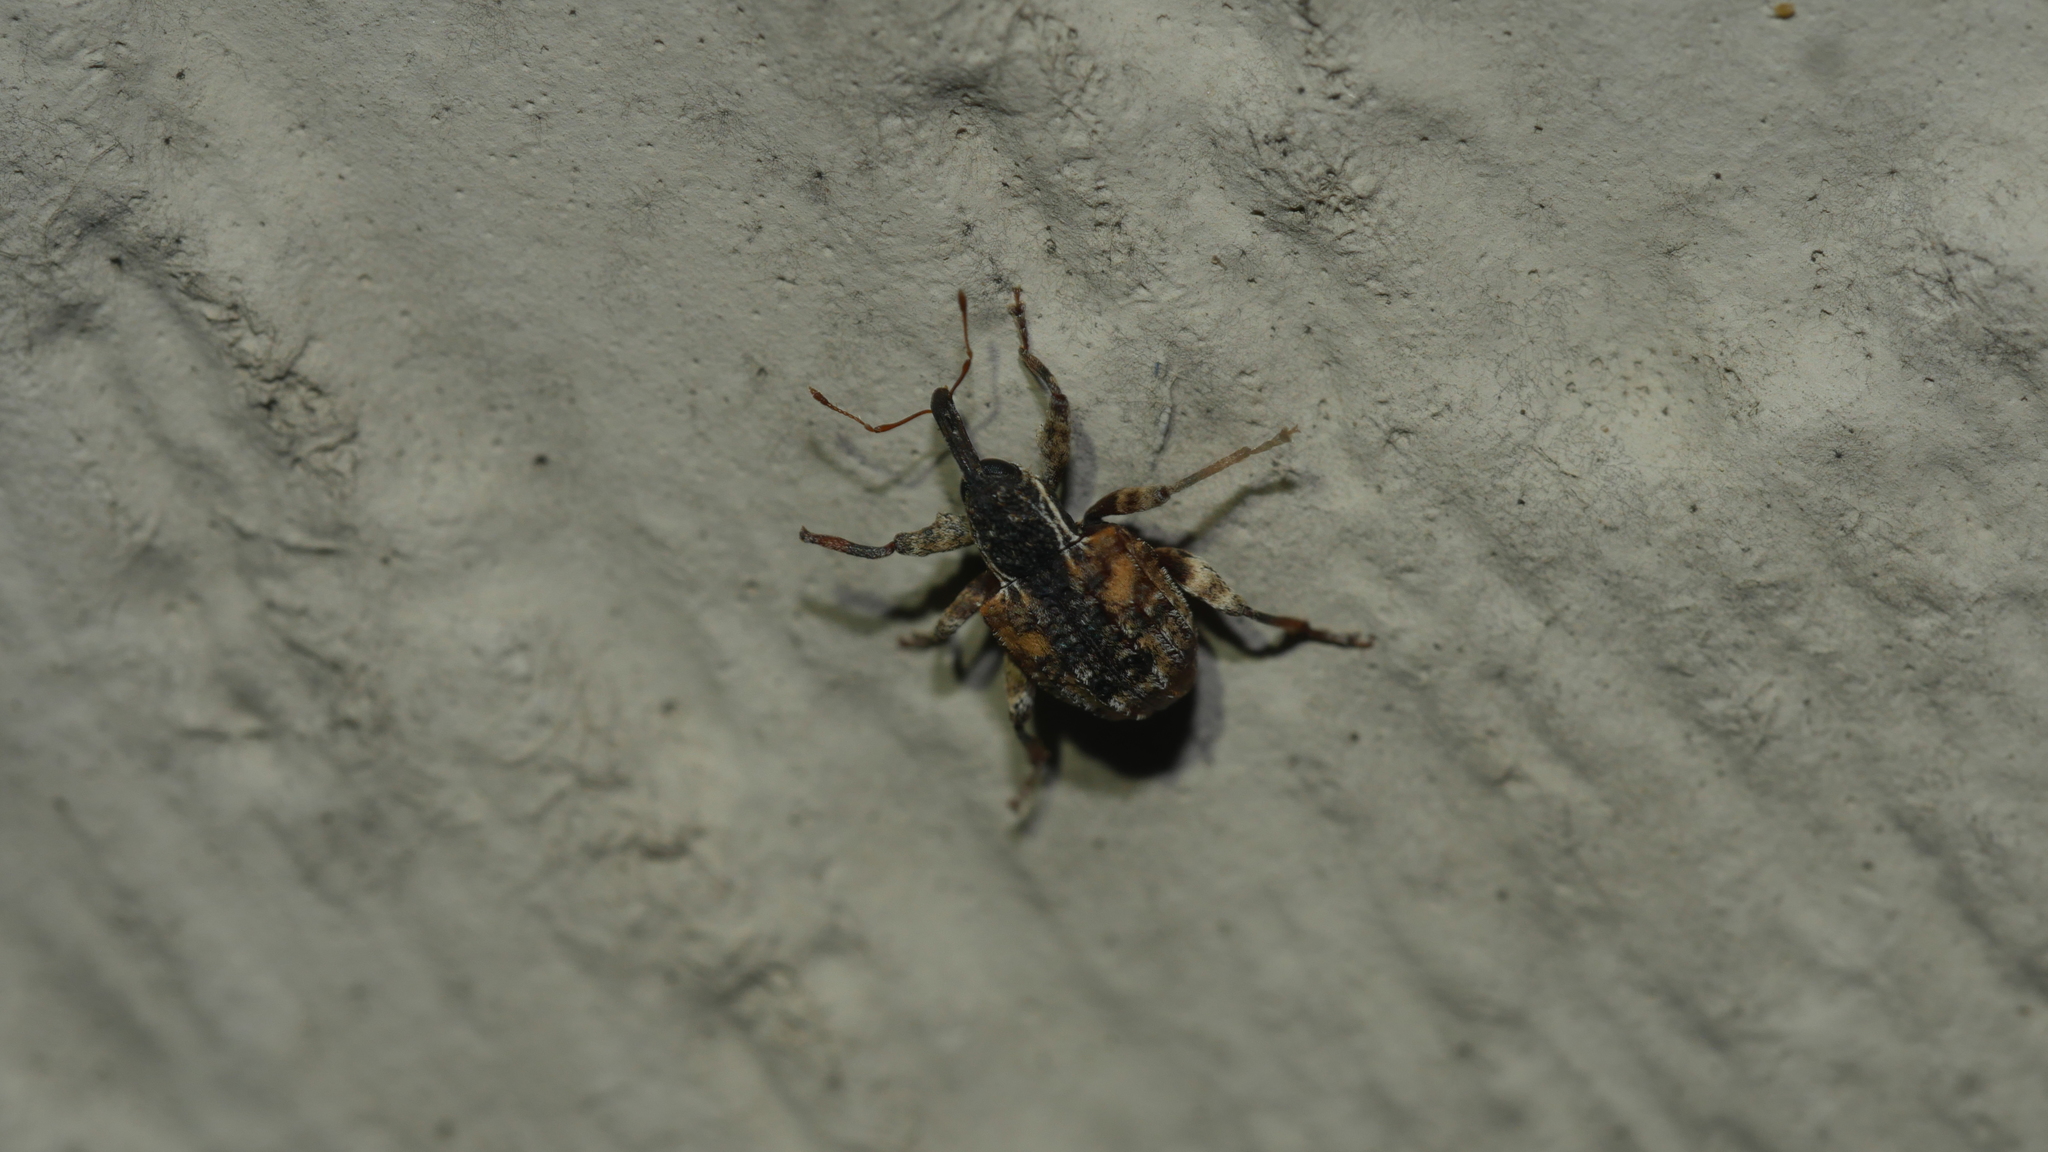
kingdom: Animalia
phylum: Arthropoda
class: Insecta
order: Coleoptera
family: Curculionidae
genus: Conotrachelus
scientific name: Conotrachelus anaglypticus
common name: Cambium curculio
